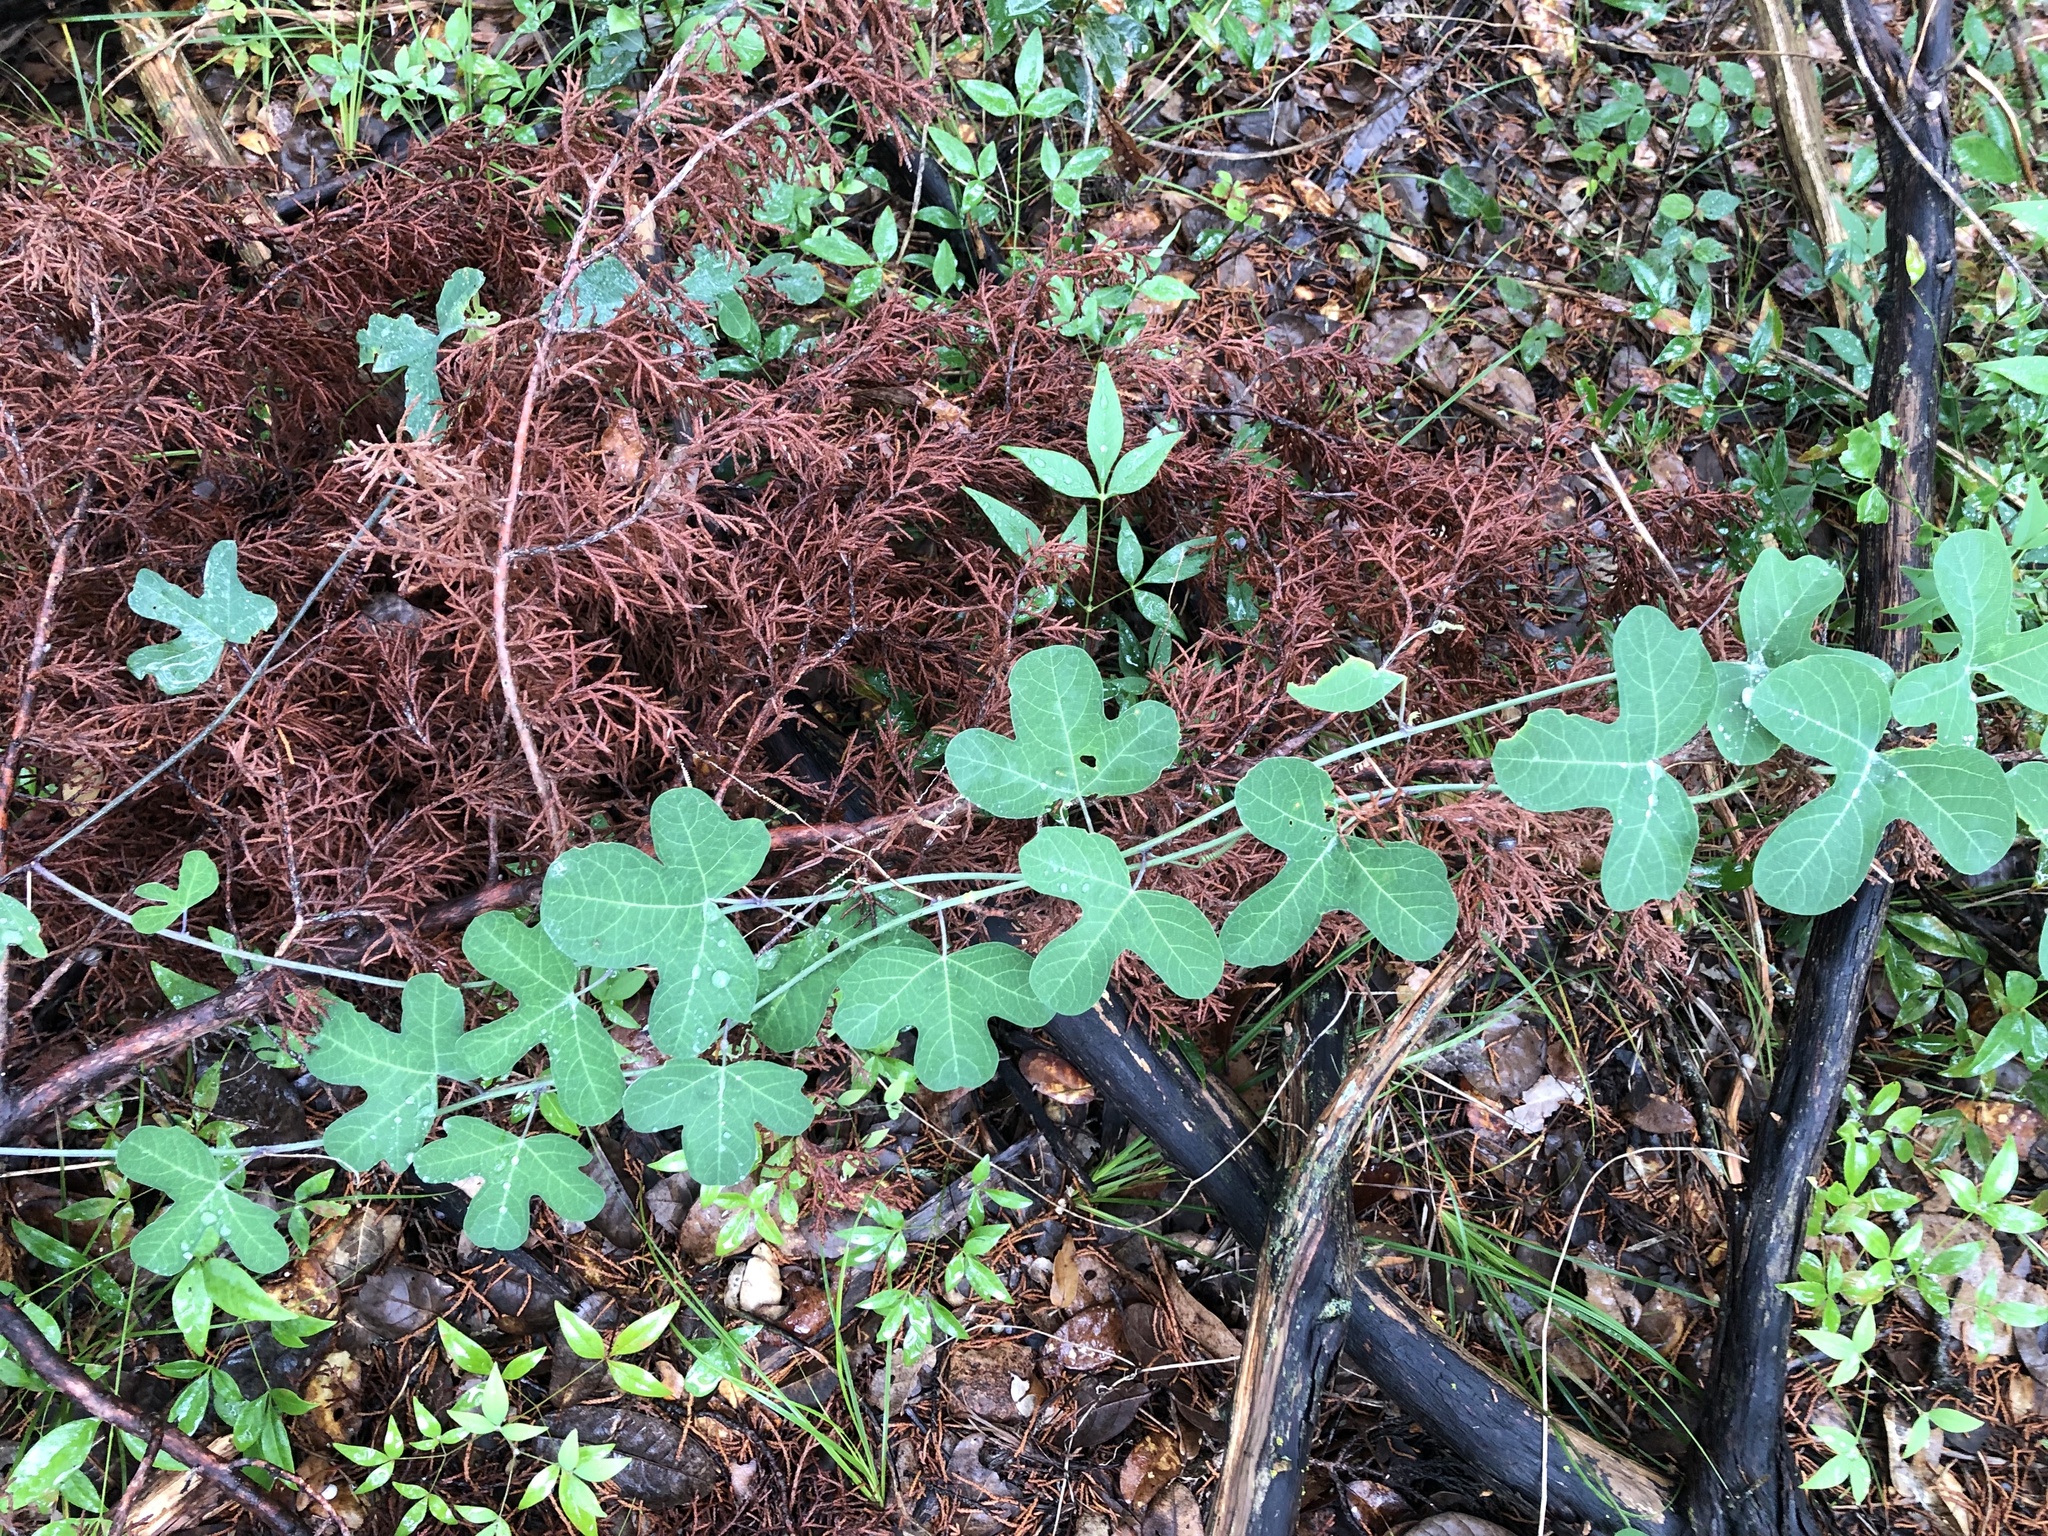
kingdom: Plantae
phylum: Tracheophyta
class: Magnoliopsida
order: Malpighiales
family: Passifloraceae
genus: Passiflora
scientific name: Passiflora affinis
